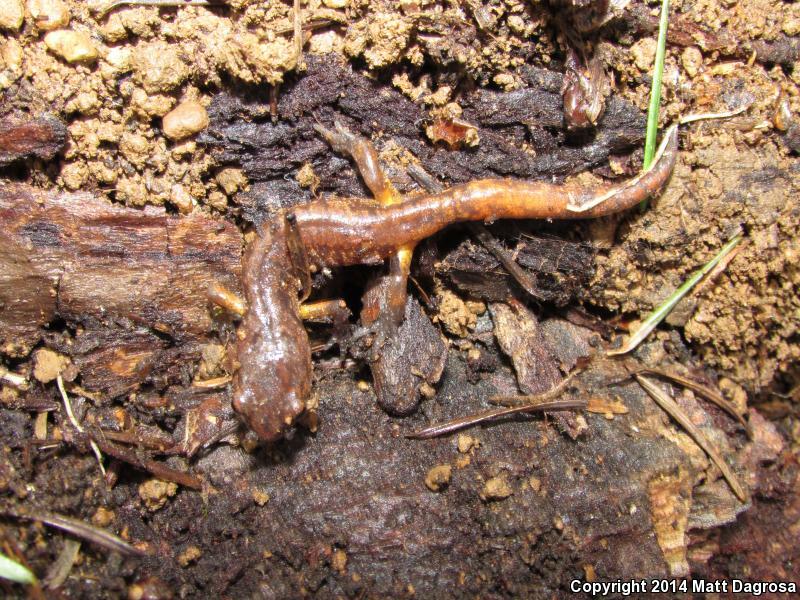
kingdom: Animalia
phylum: Chordata
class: Amphibia
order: Caudata
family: Plethodontidae
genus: Ensatina
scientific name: Ensatina eschscholtzii
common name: Ensatina
